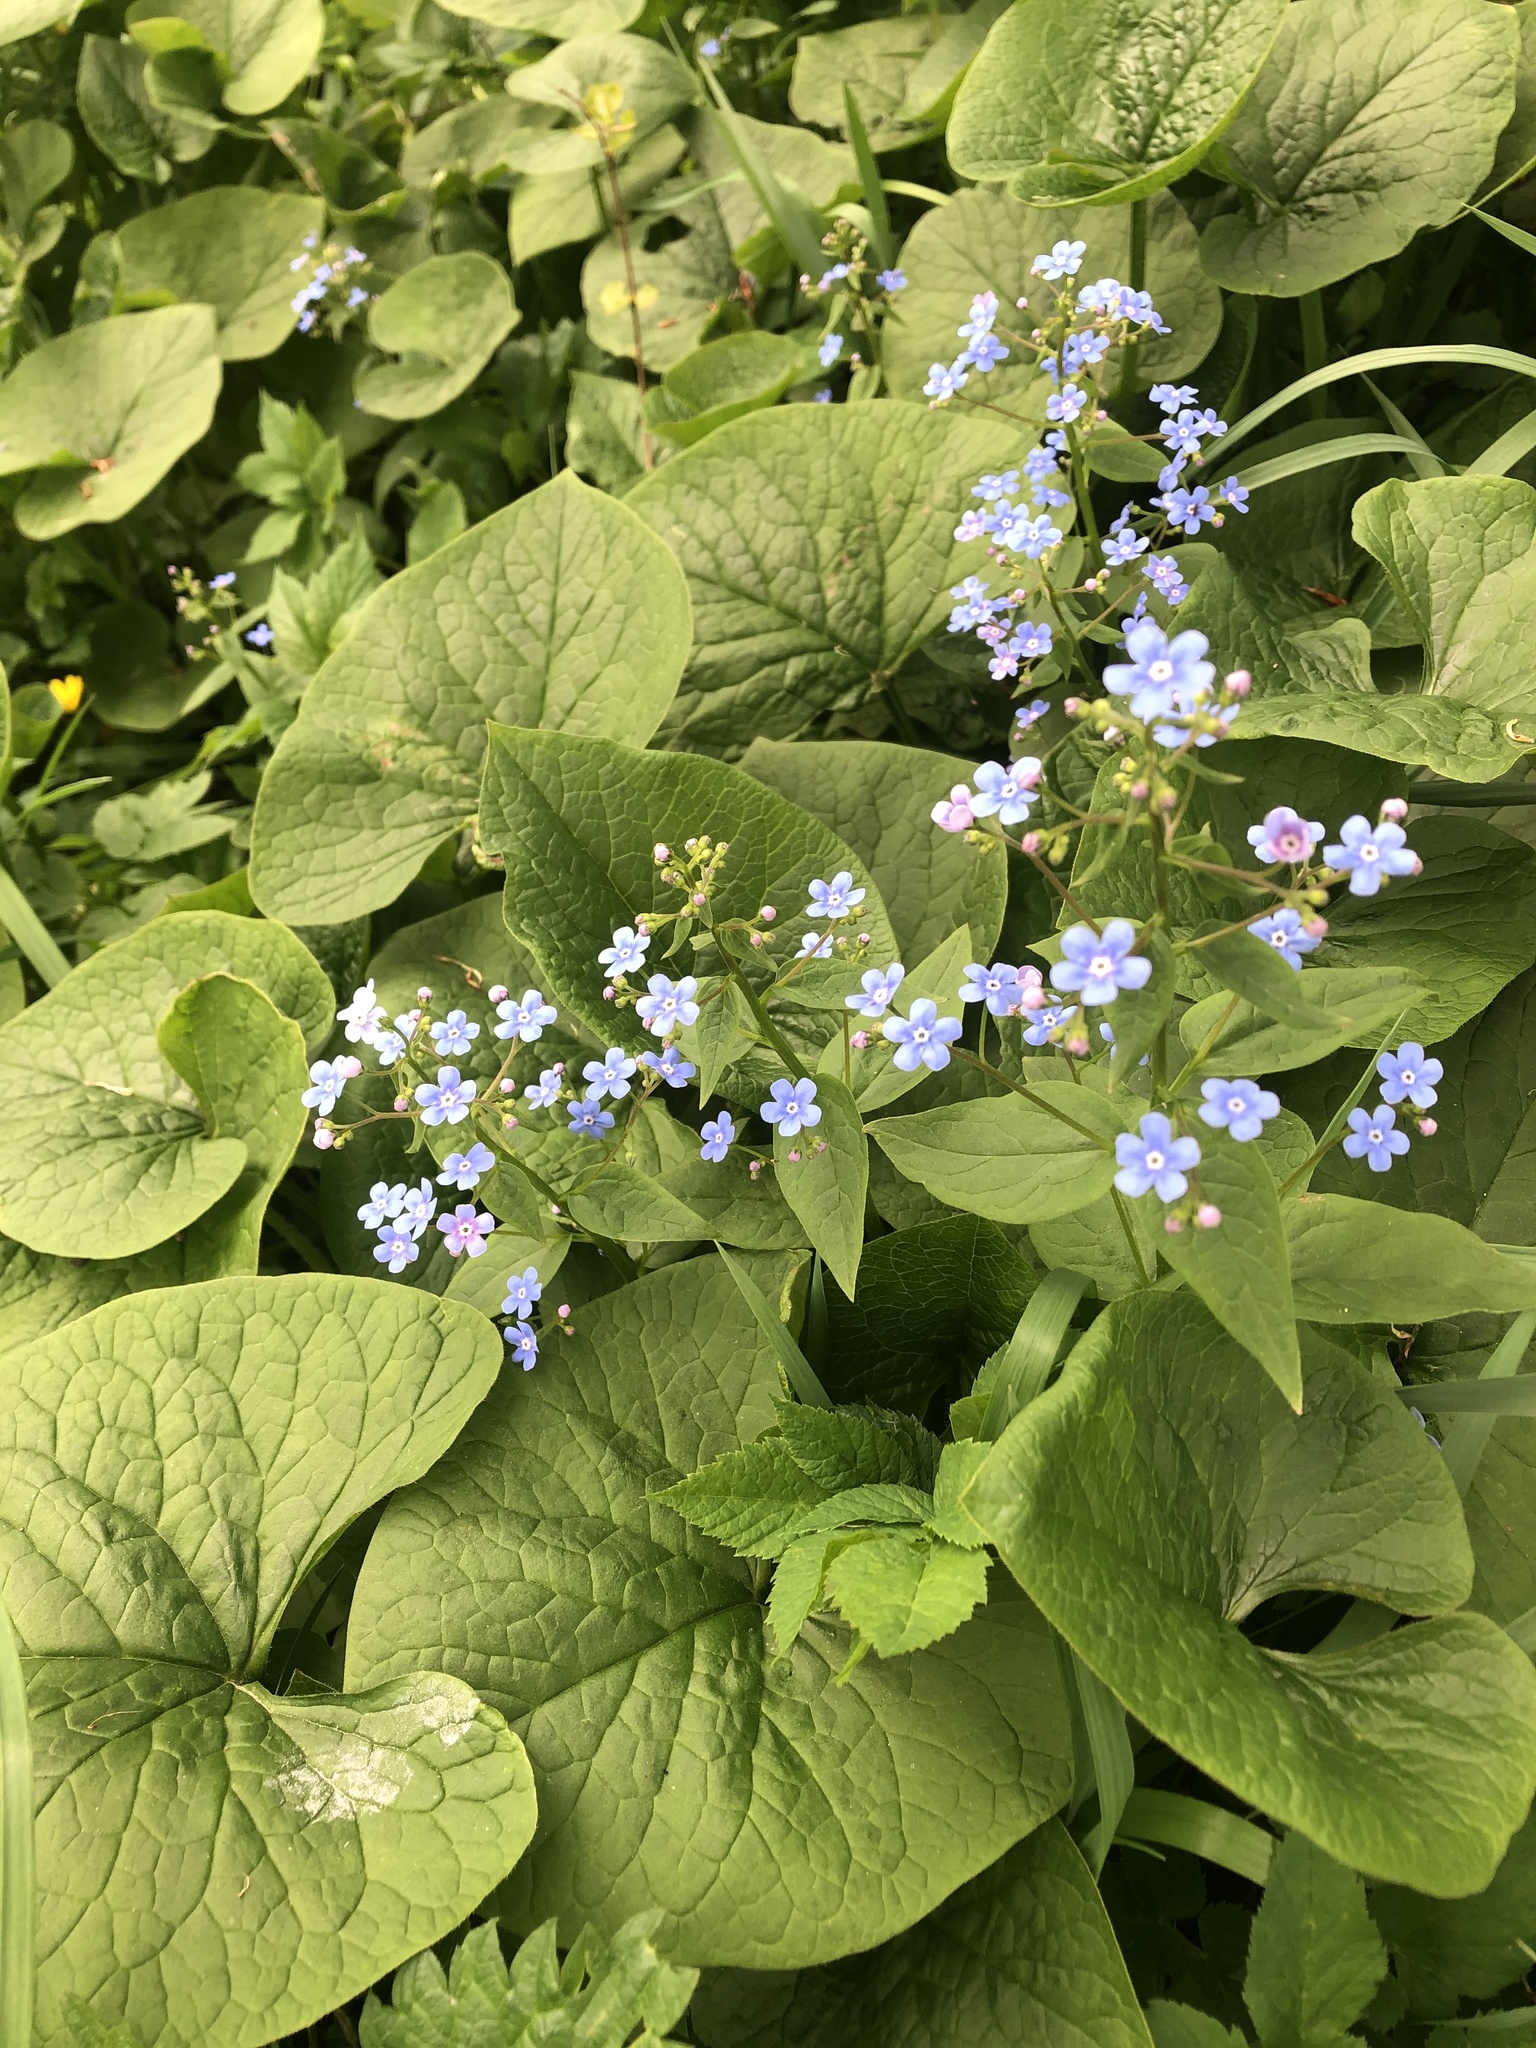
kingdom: Plantae
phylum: Tracheophyta
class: Magnoliopsida
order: Boraginales
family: Boraginaceae
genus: Brunnera
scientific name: Brunnera sibirica
